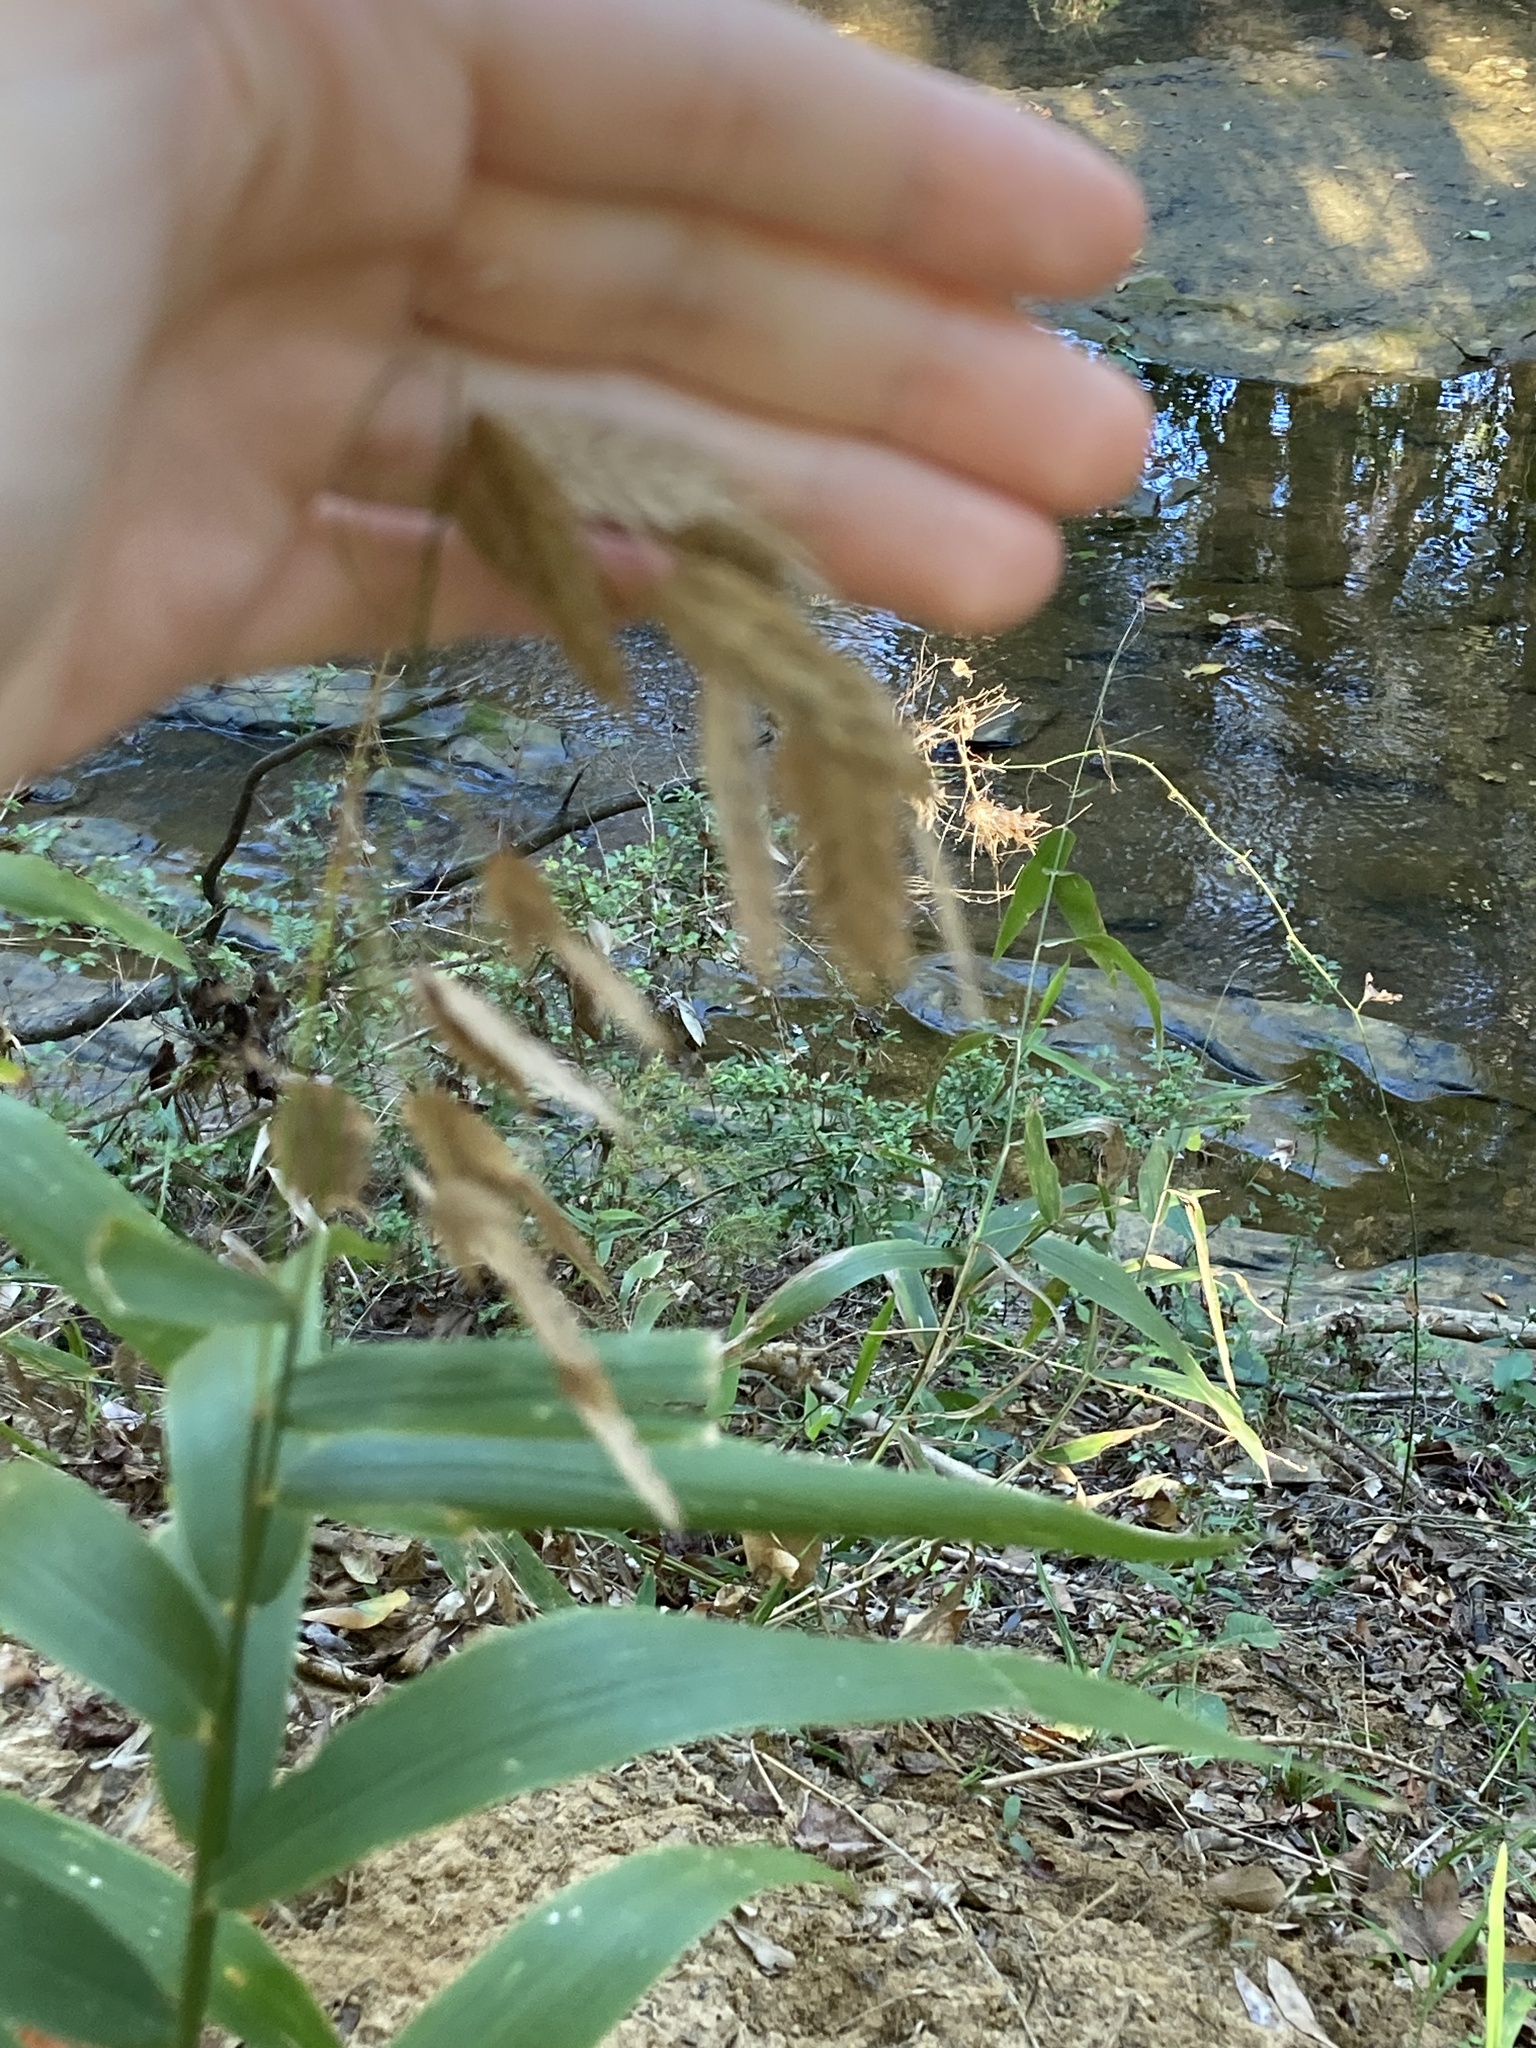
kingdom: Plantae
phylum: Tracheophyta
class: Liliopsida
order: Poales
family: Poaceae
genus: Chasmanthium
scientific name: Chasmanthium latifolium
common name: Broad-leaved chasmanthium
